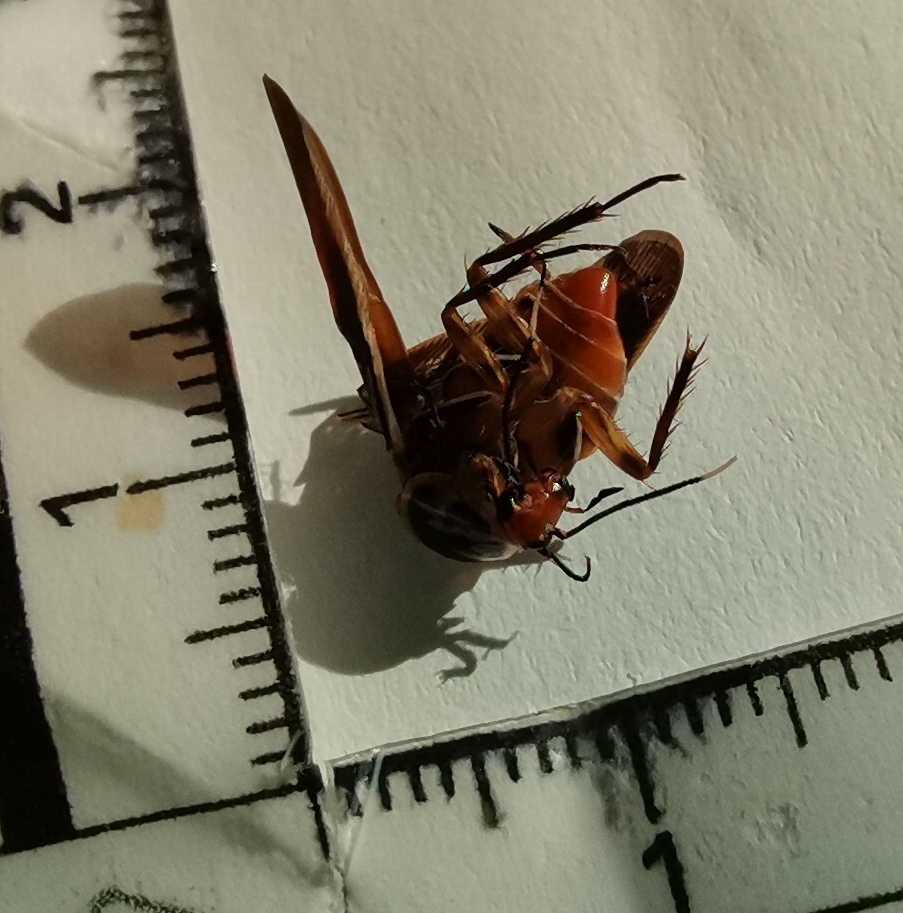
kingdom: Animalia
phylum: Arthropoda
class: Insecta
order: Blattodea
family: Ectobiidae
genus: Pseudomops
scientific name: Pseudomops interceptus
